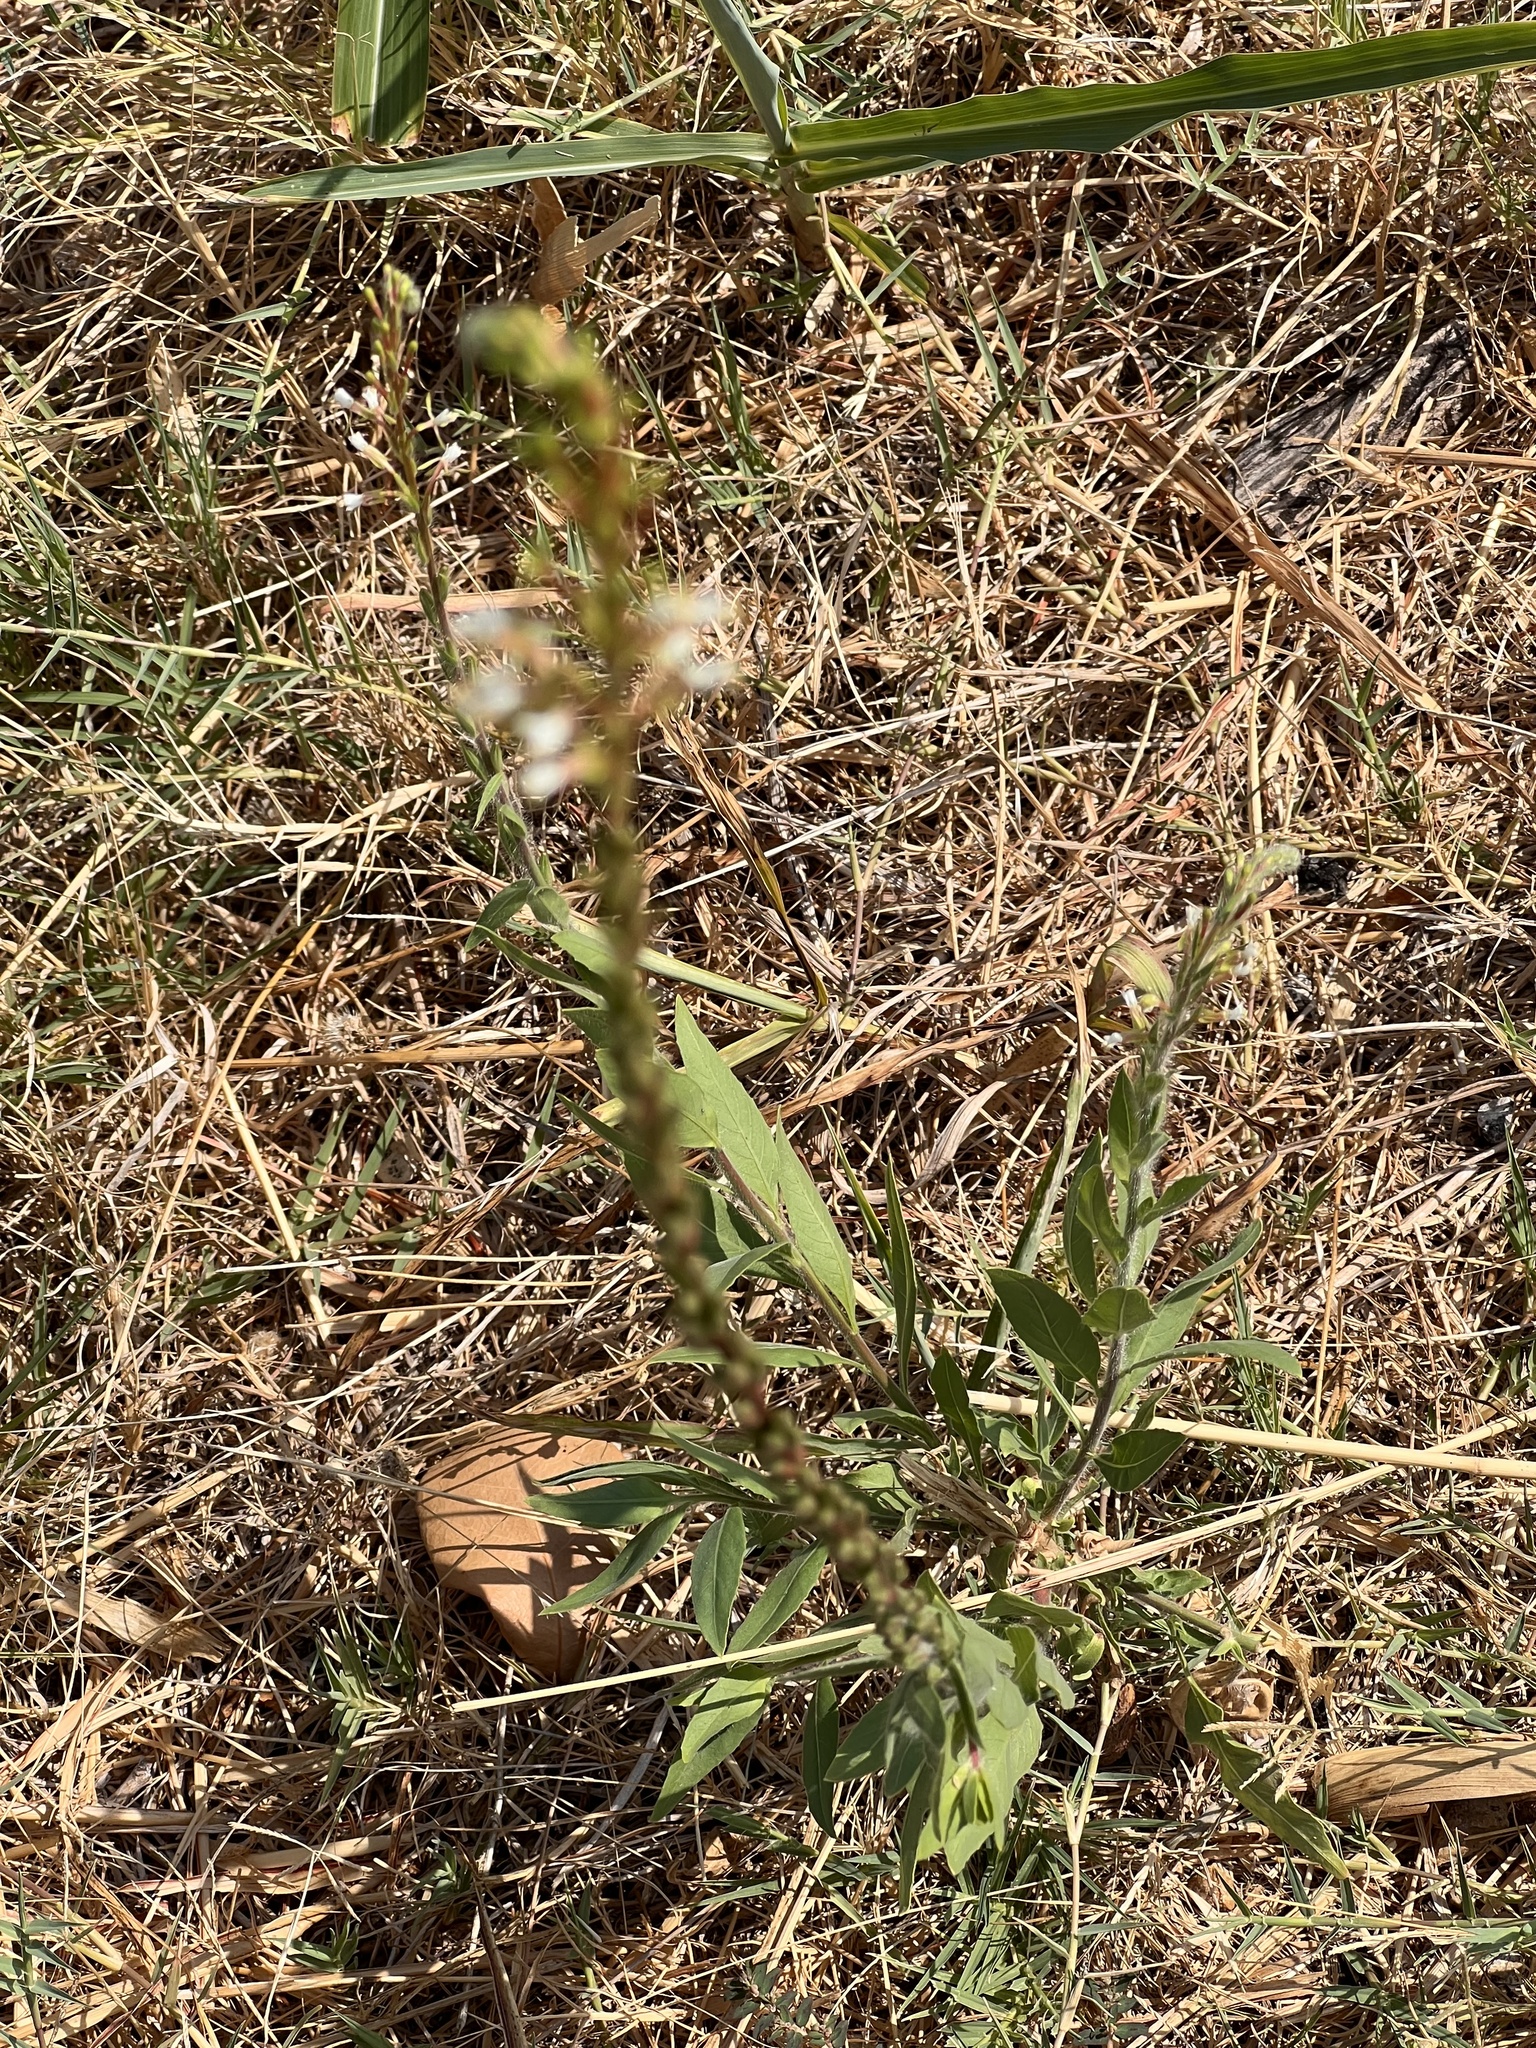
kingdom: Plantae
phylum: Tracheophyta
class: Magnoliopsida
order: Myrtales
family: Onagraceae
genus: Oenothera
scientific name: Oenothera curtiflora
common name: Velvetweed
